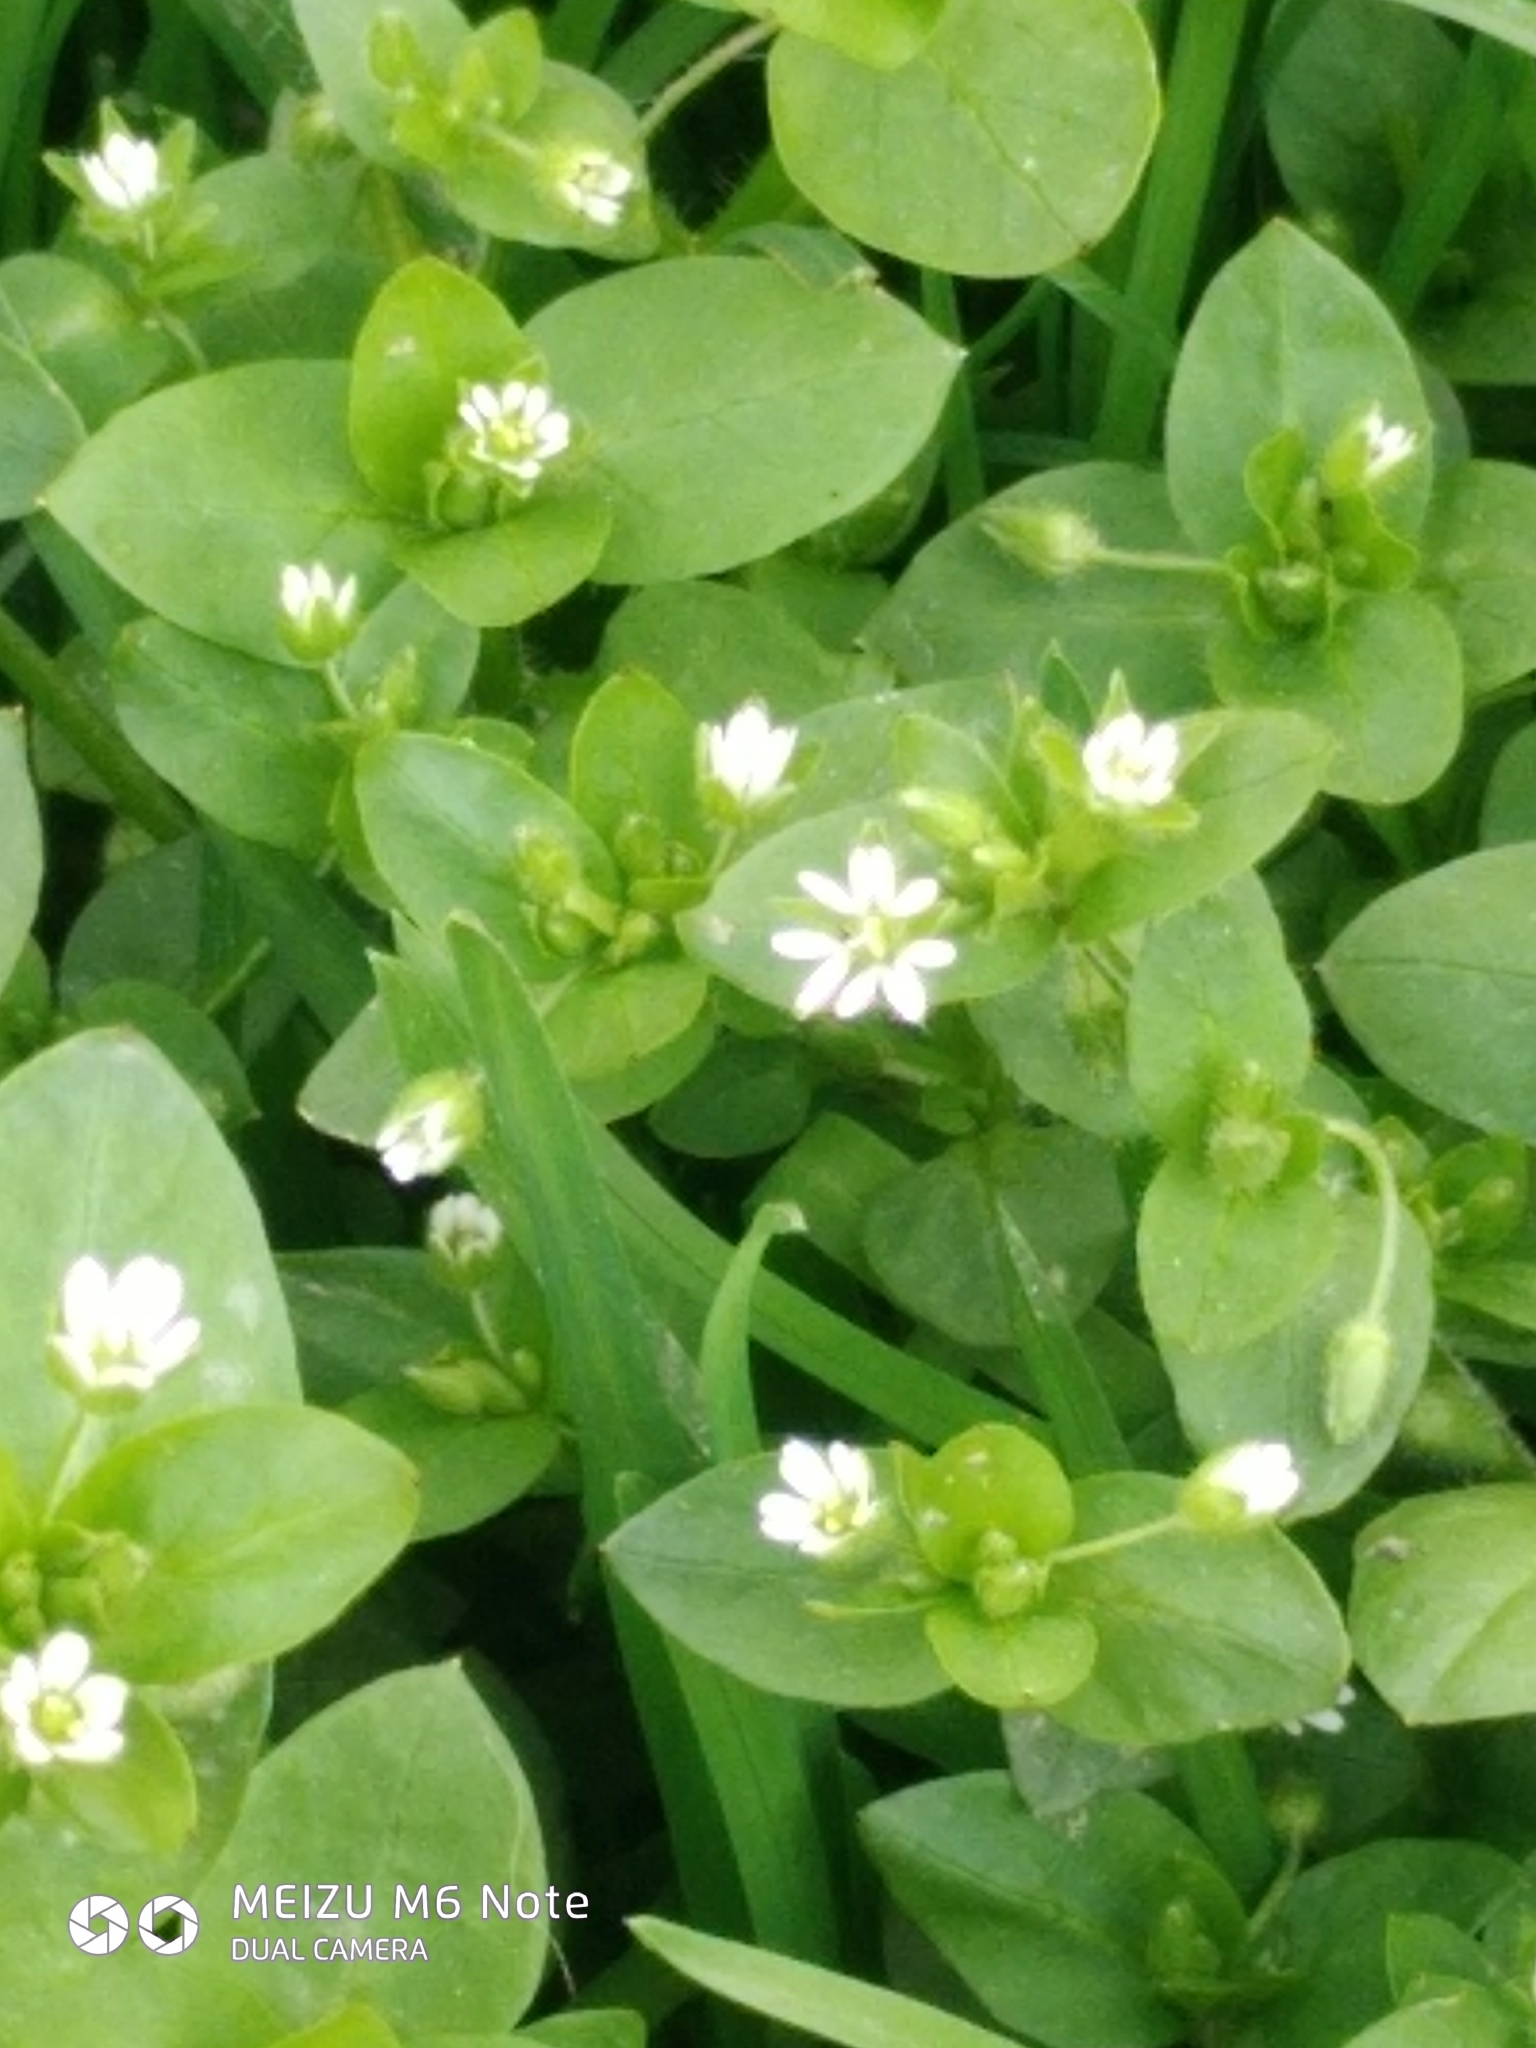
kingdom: Plantae
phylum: Tracheophyta
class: Magnoliopsida
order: Caryophyllales
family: Caryophyllaceae
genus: Stellaria
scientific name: Stellaria media
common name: Common chickweed
